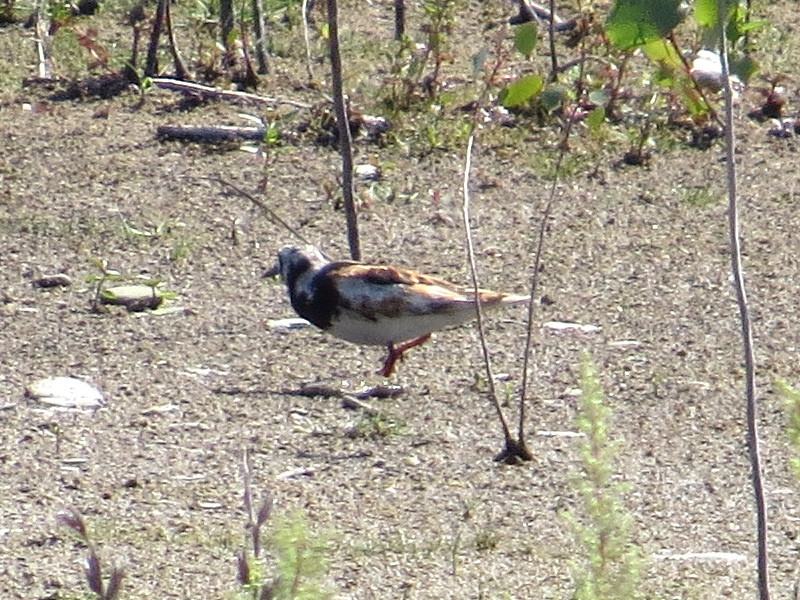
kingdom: Animalia
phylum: Chordata
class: Aves
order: Charadriiformes
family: Scolopacidae
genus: Arenaria
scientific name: Arenaria interpres
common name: Ruddy turnstone
